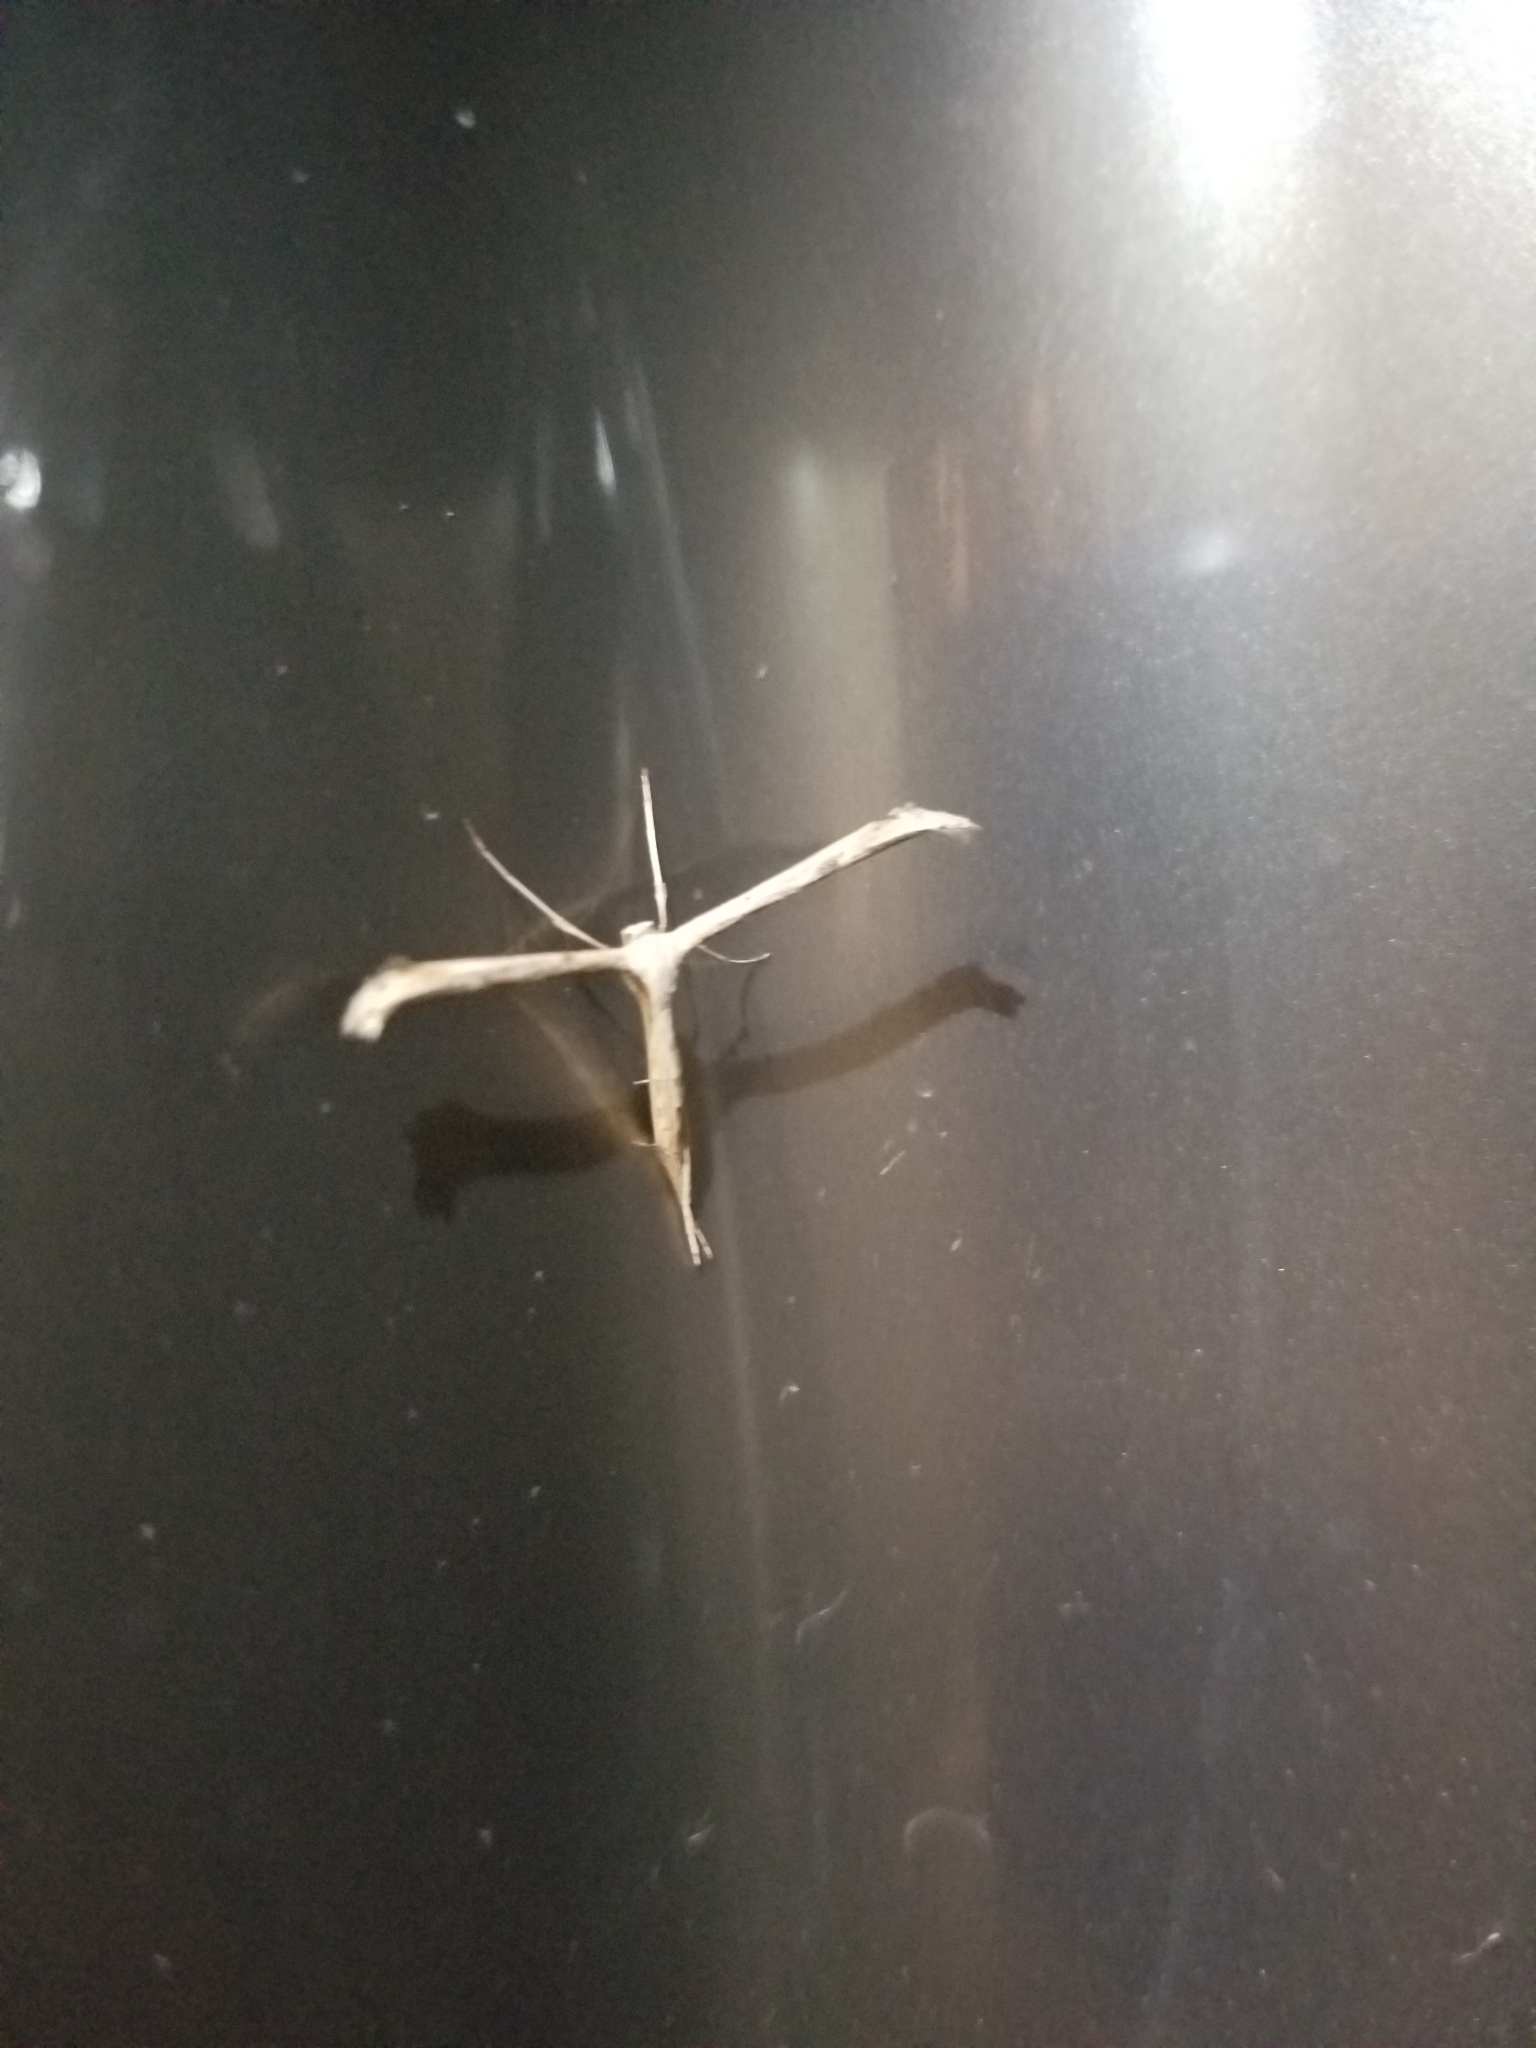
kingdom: Animalia
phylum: Arthropoda
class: Insecta
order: Lepidoptera
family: Pterophoridae
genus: Emmelina
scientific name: Emmelina monodactyla
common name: Common plume
